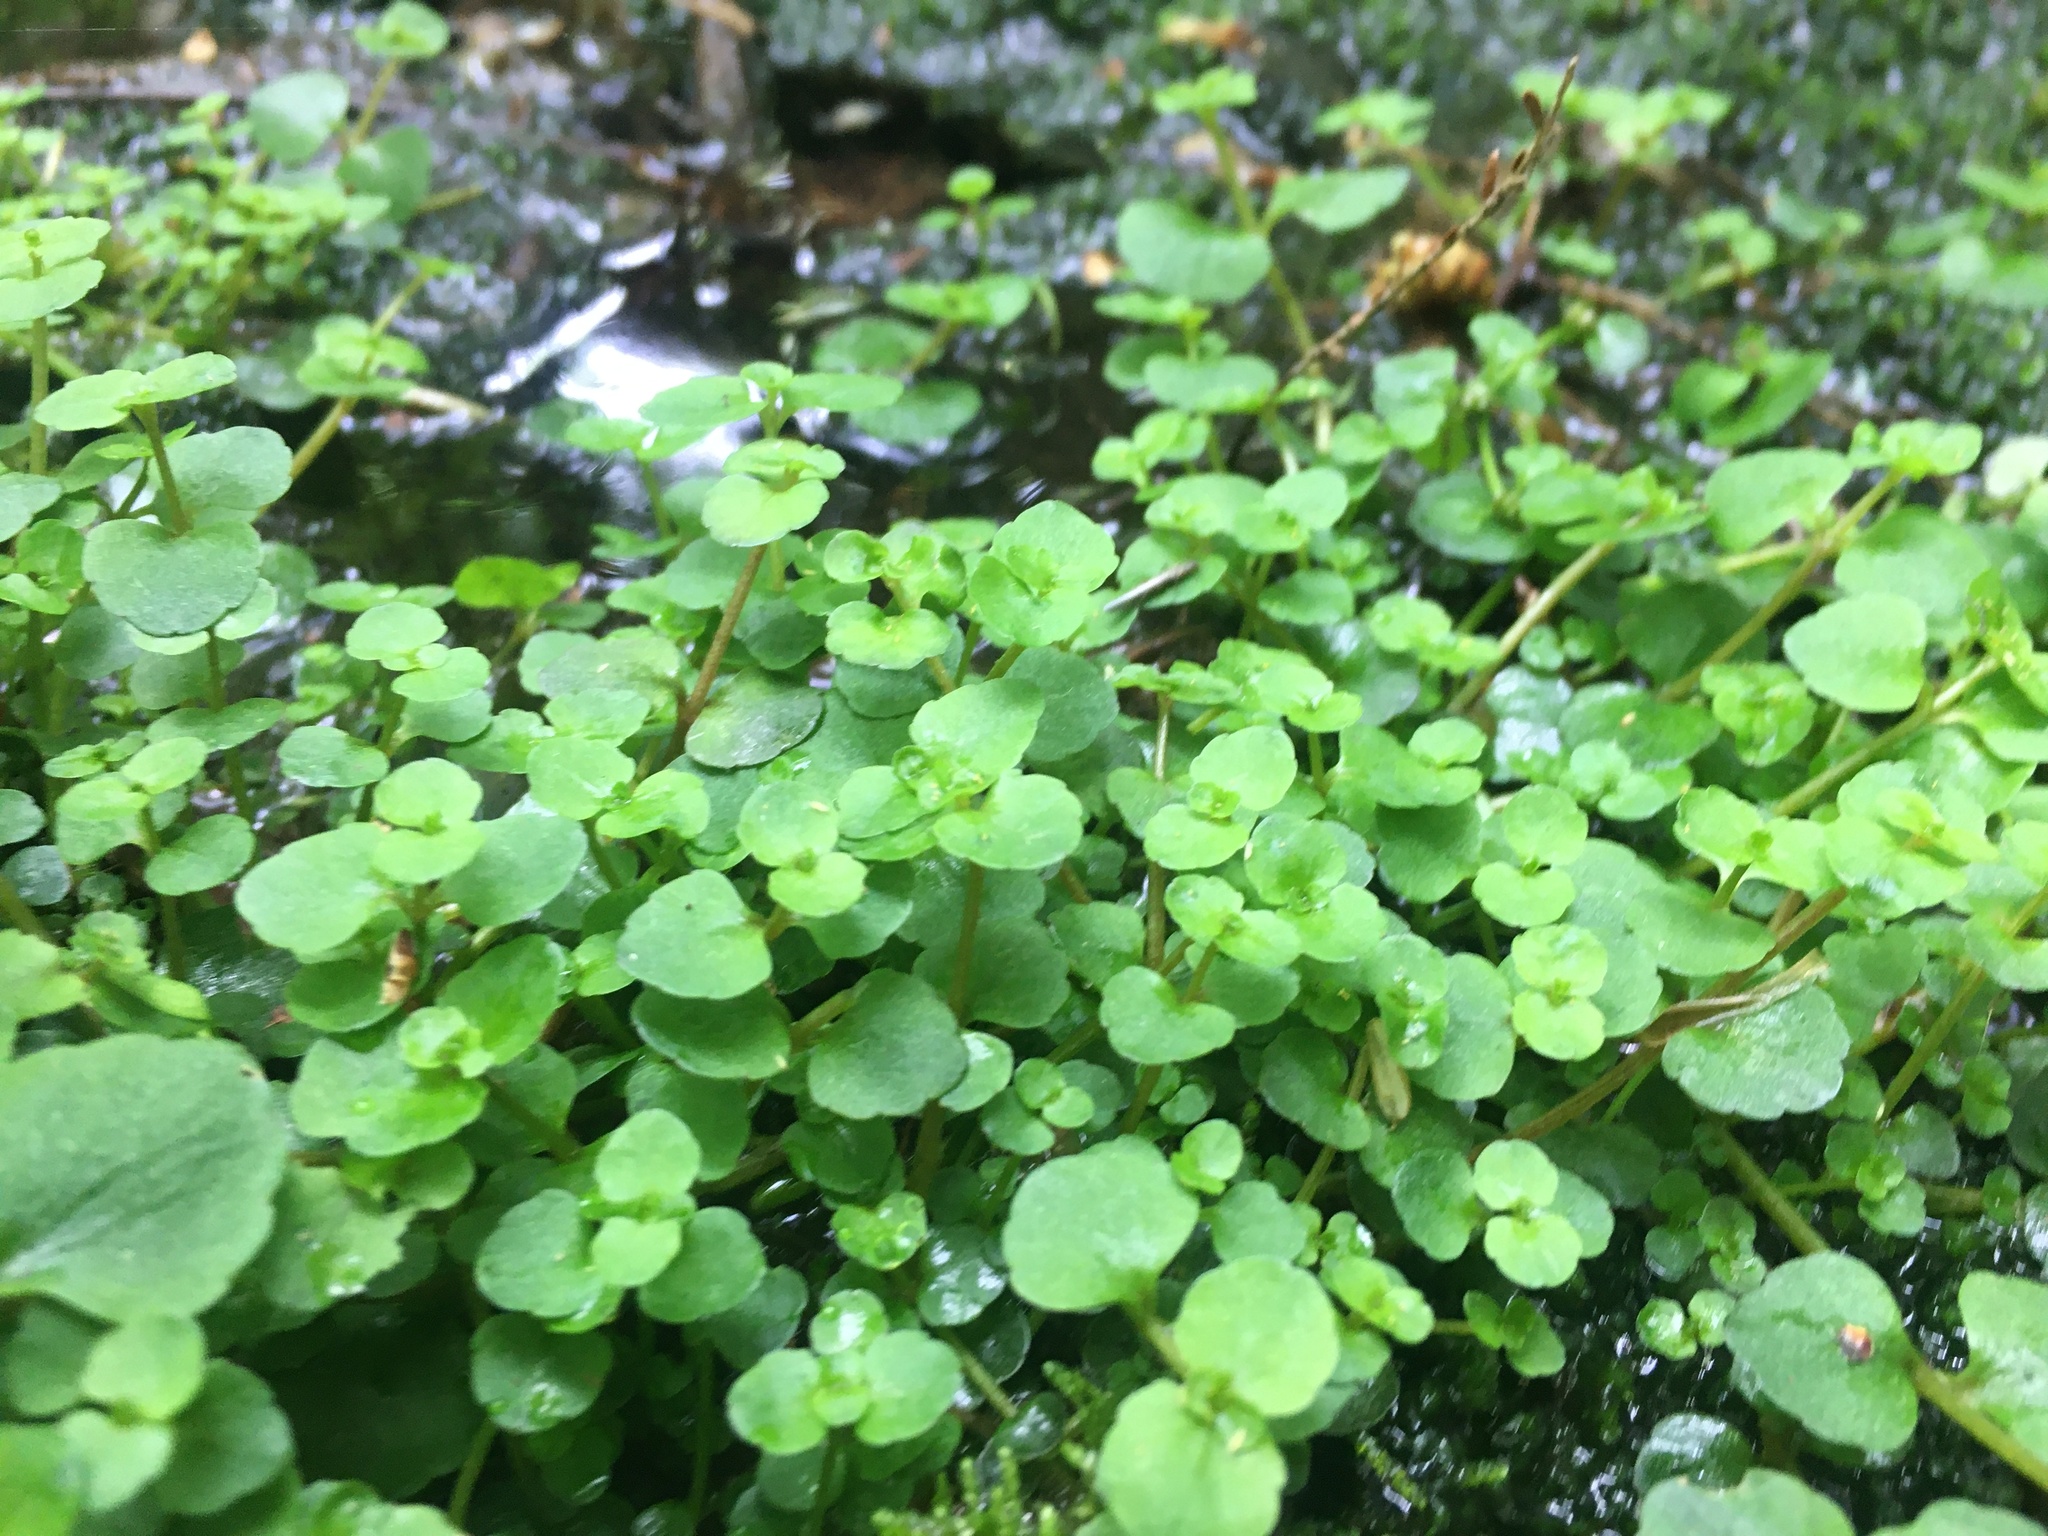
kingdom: Plantae
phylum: Tracheophyta
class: Magnoliopsida
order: Saxifragales
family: Saxifragaceae
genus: Chrysosplenium
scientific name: Chrysosplenium americanum
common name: American golden-saxifrage
